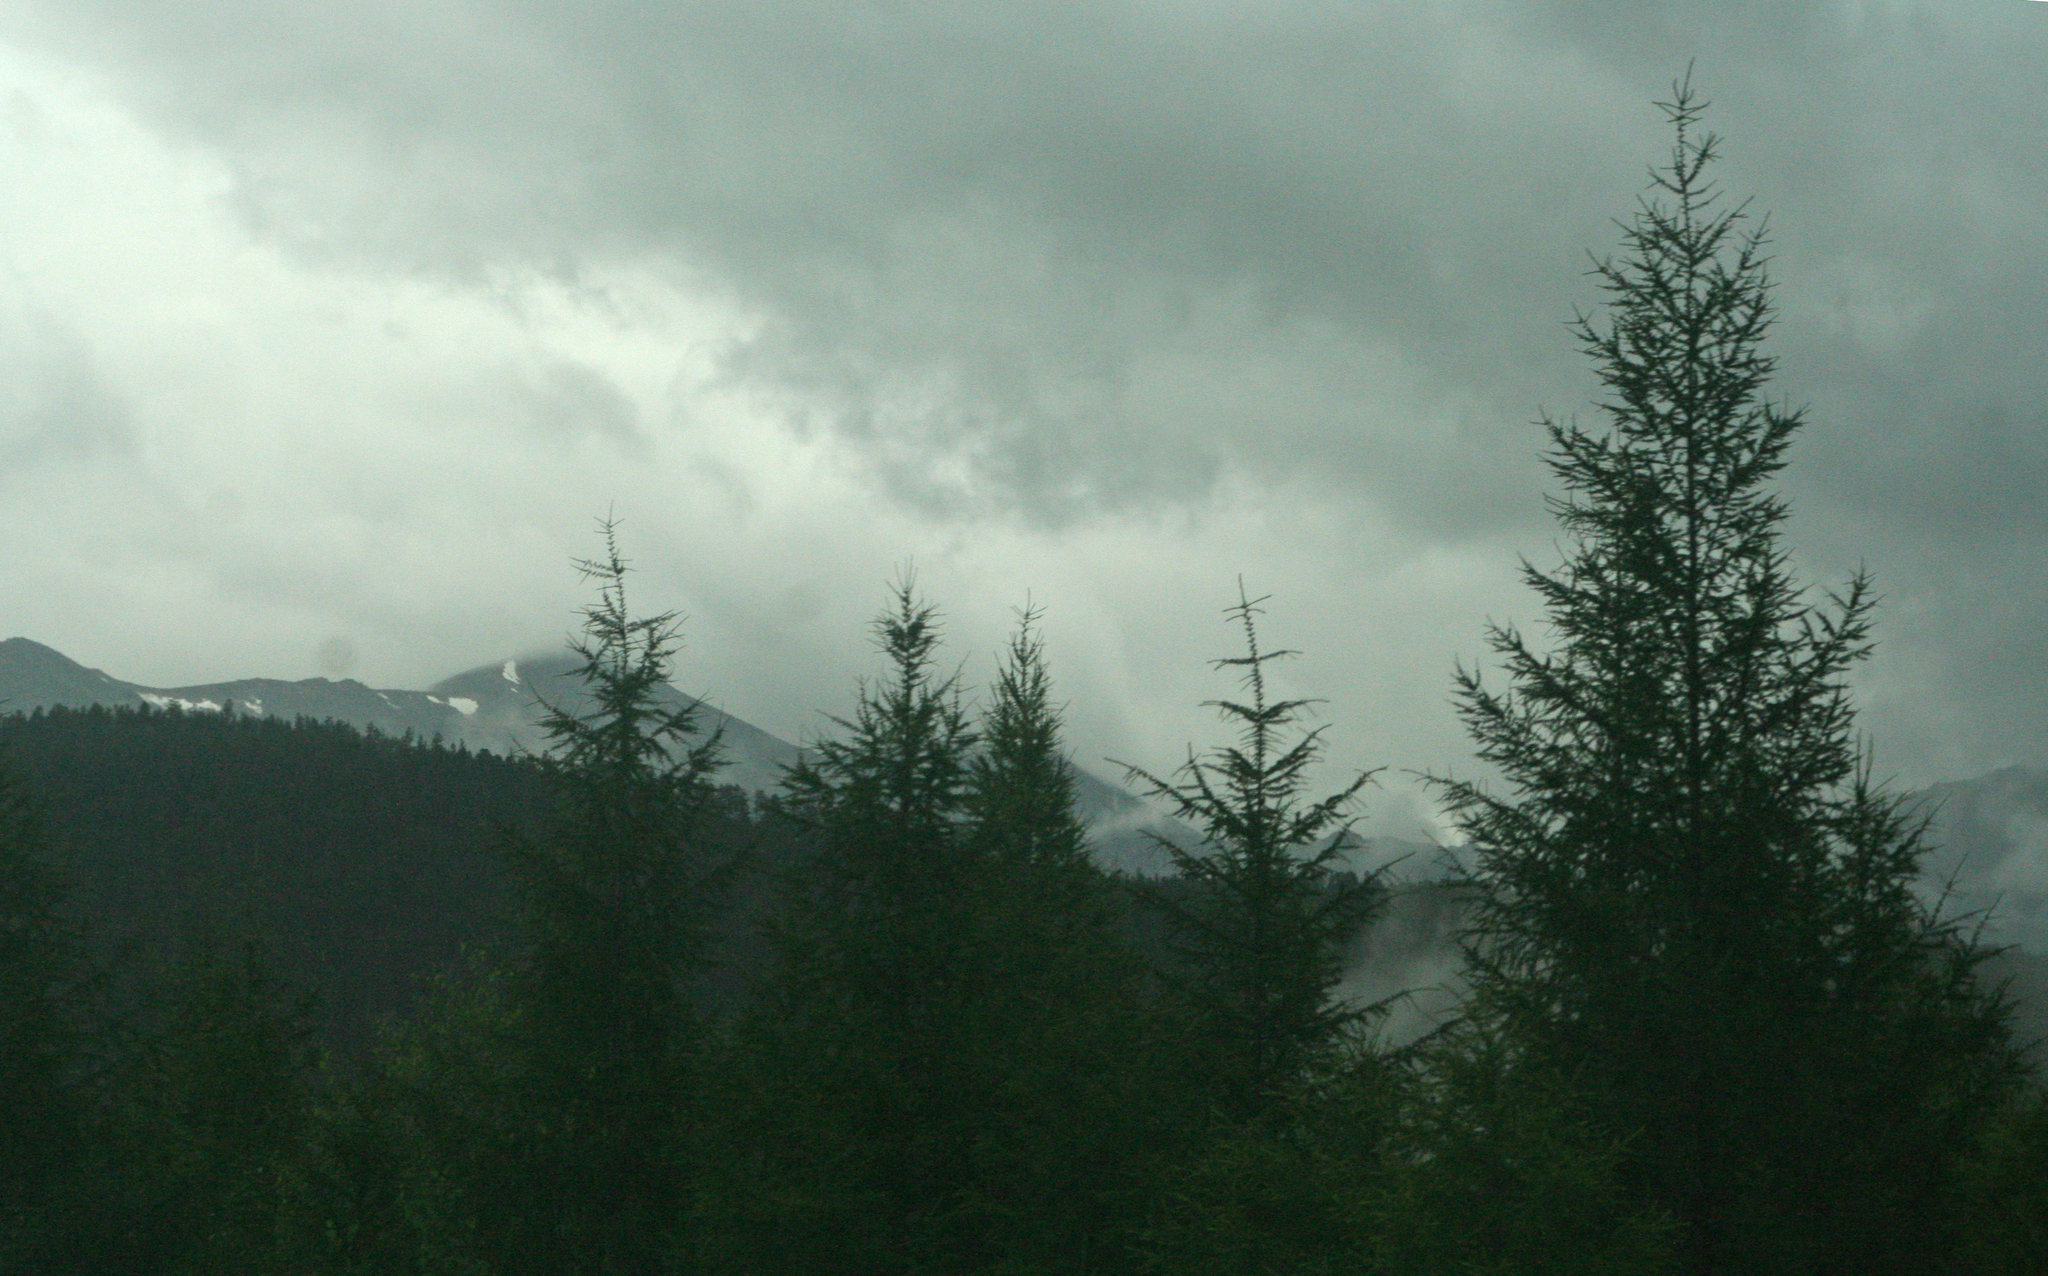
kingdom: Plantae
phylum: Tracheophyta
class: Pinopsida
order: Pinales
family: Pinaceae
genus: Larix
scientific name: Larix gmelinii
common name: Dahurian larch
